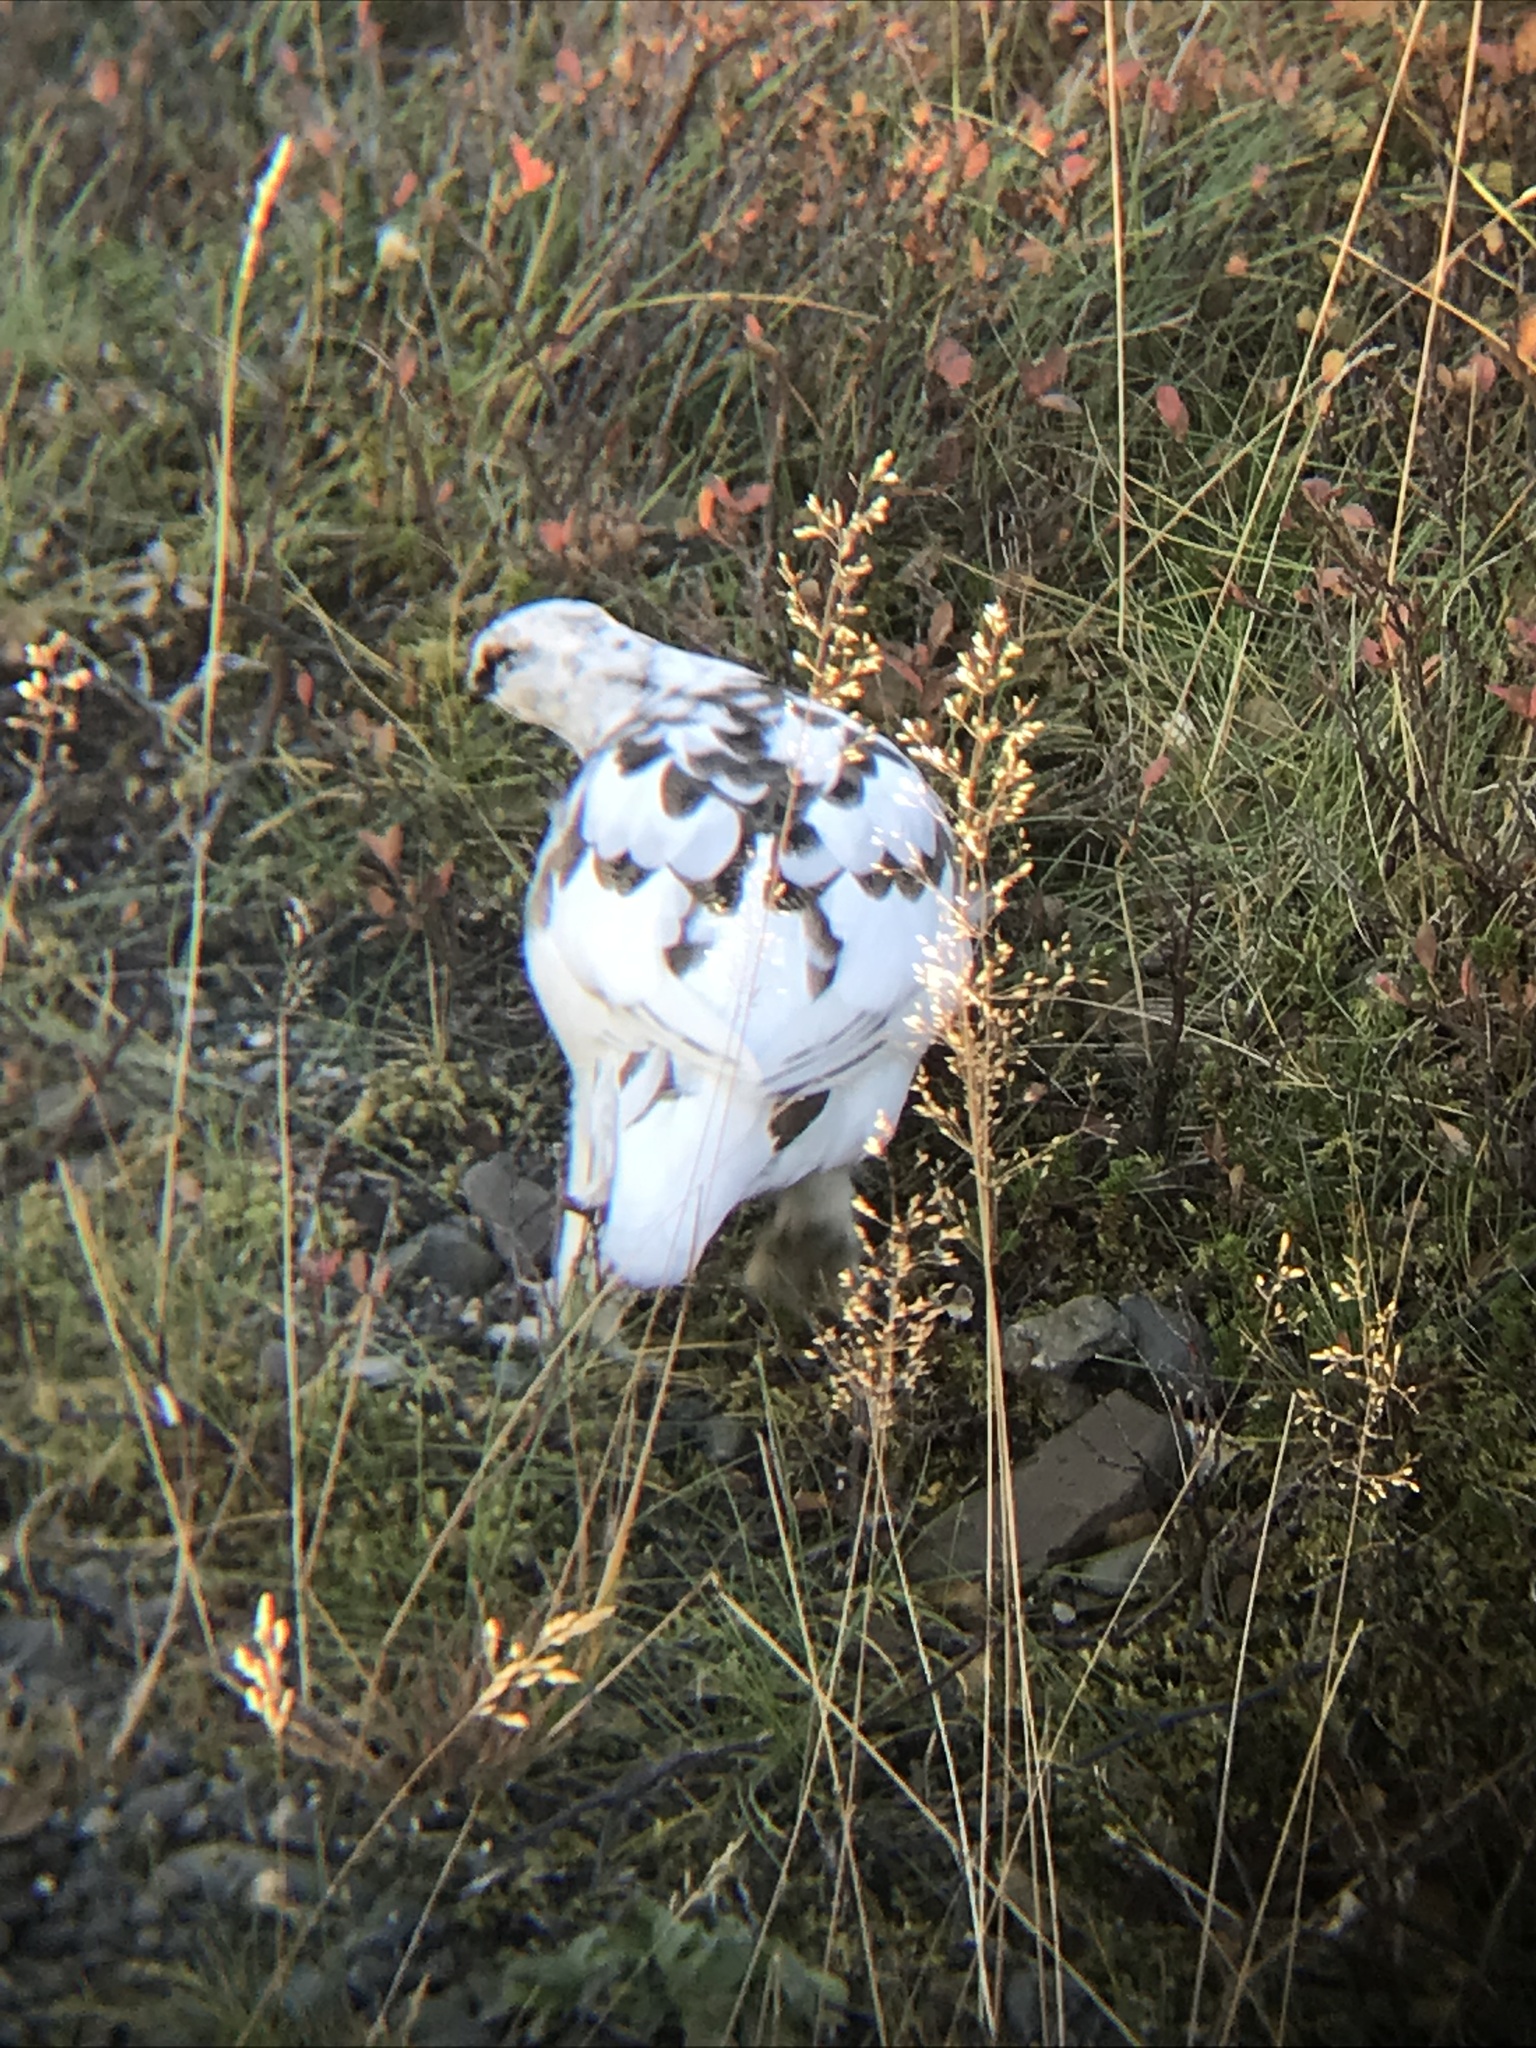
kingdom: Animalia
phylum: Chordata
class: Aves
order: Galliformes
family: Phasianidae
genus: Lagopus
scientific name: Lagopus muta
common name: Rock ptarmigan
